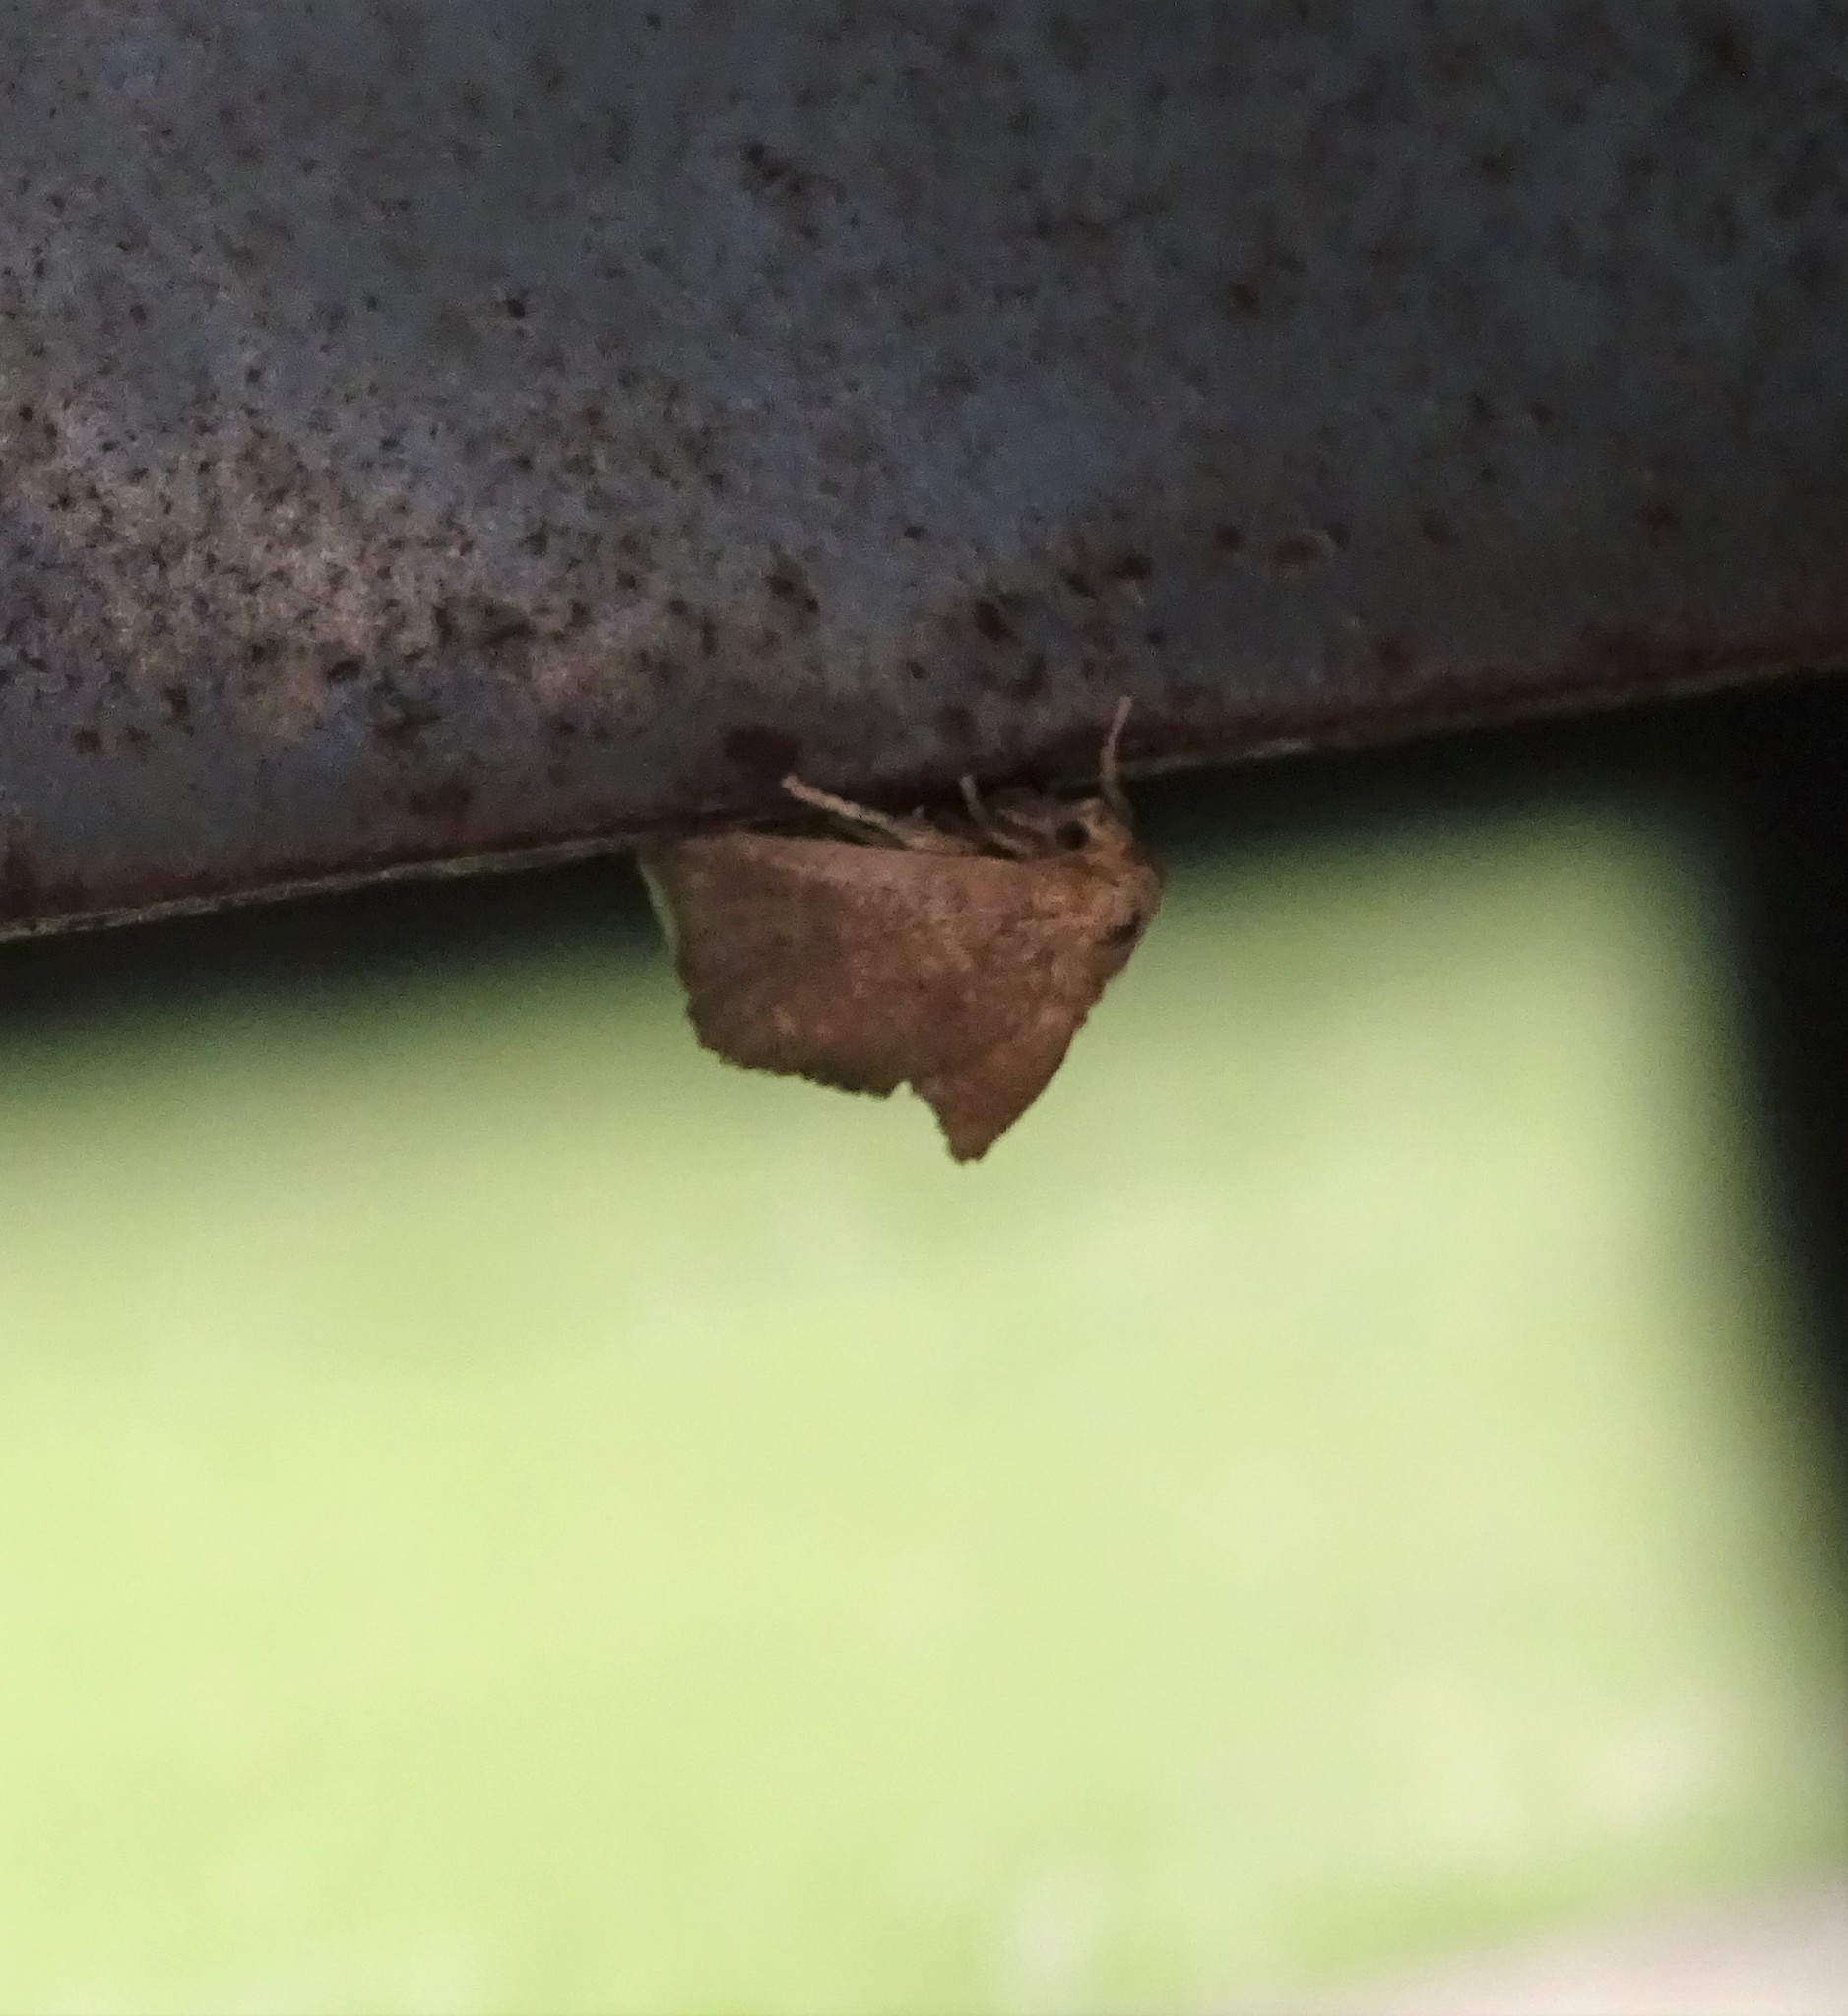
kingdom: Animalia
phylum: Arthropoda
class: Insecta
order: Lepidoptera
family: Limacodidae
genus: Isa
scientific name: Isa textula
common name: Crowned slug moth
